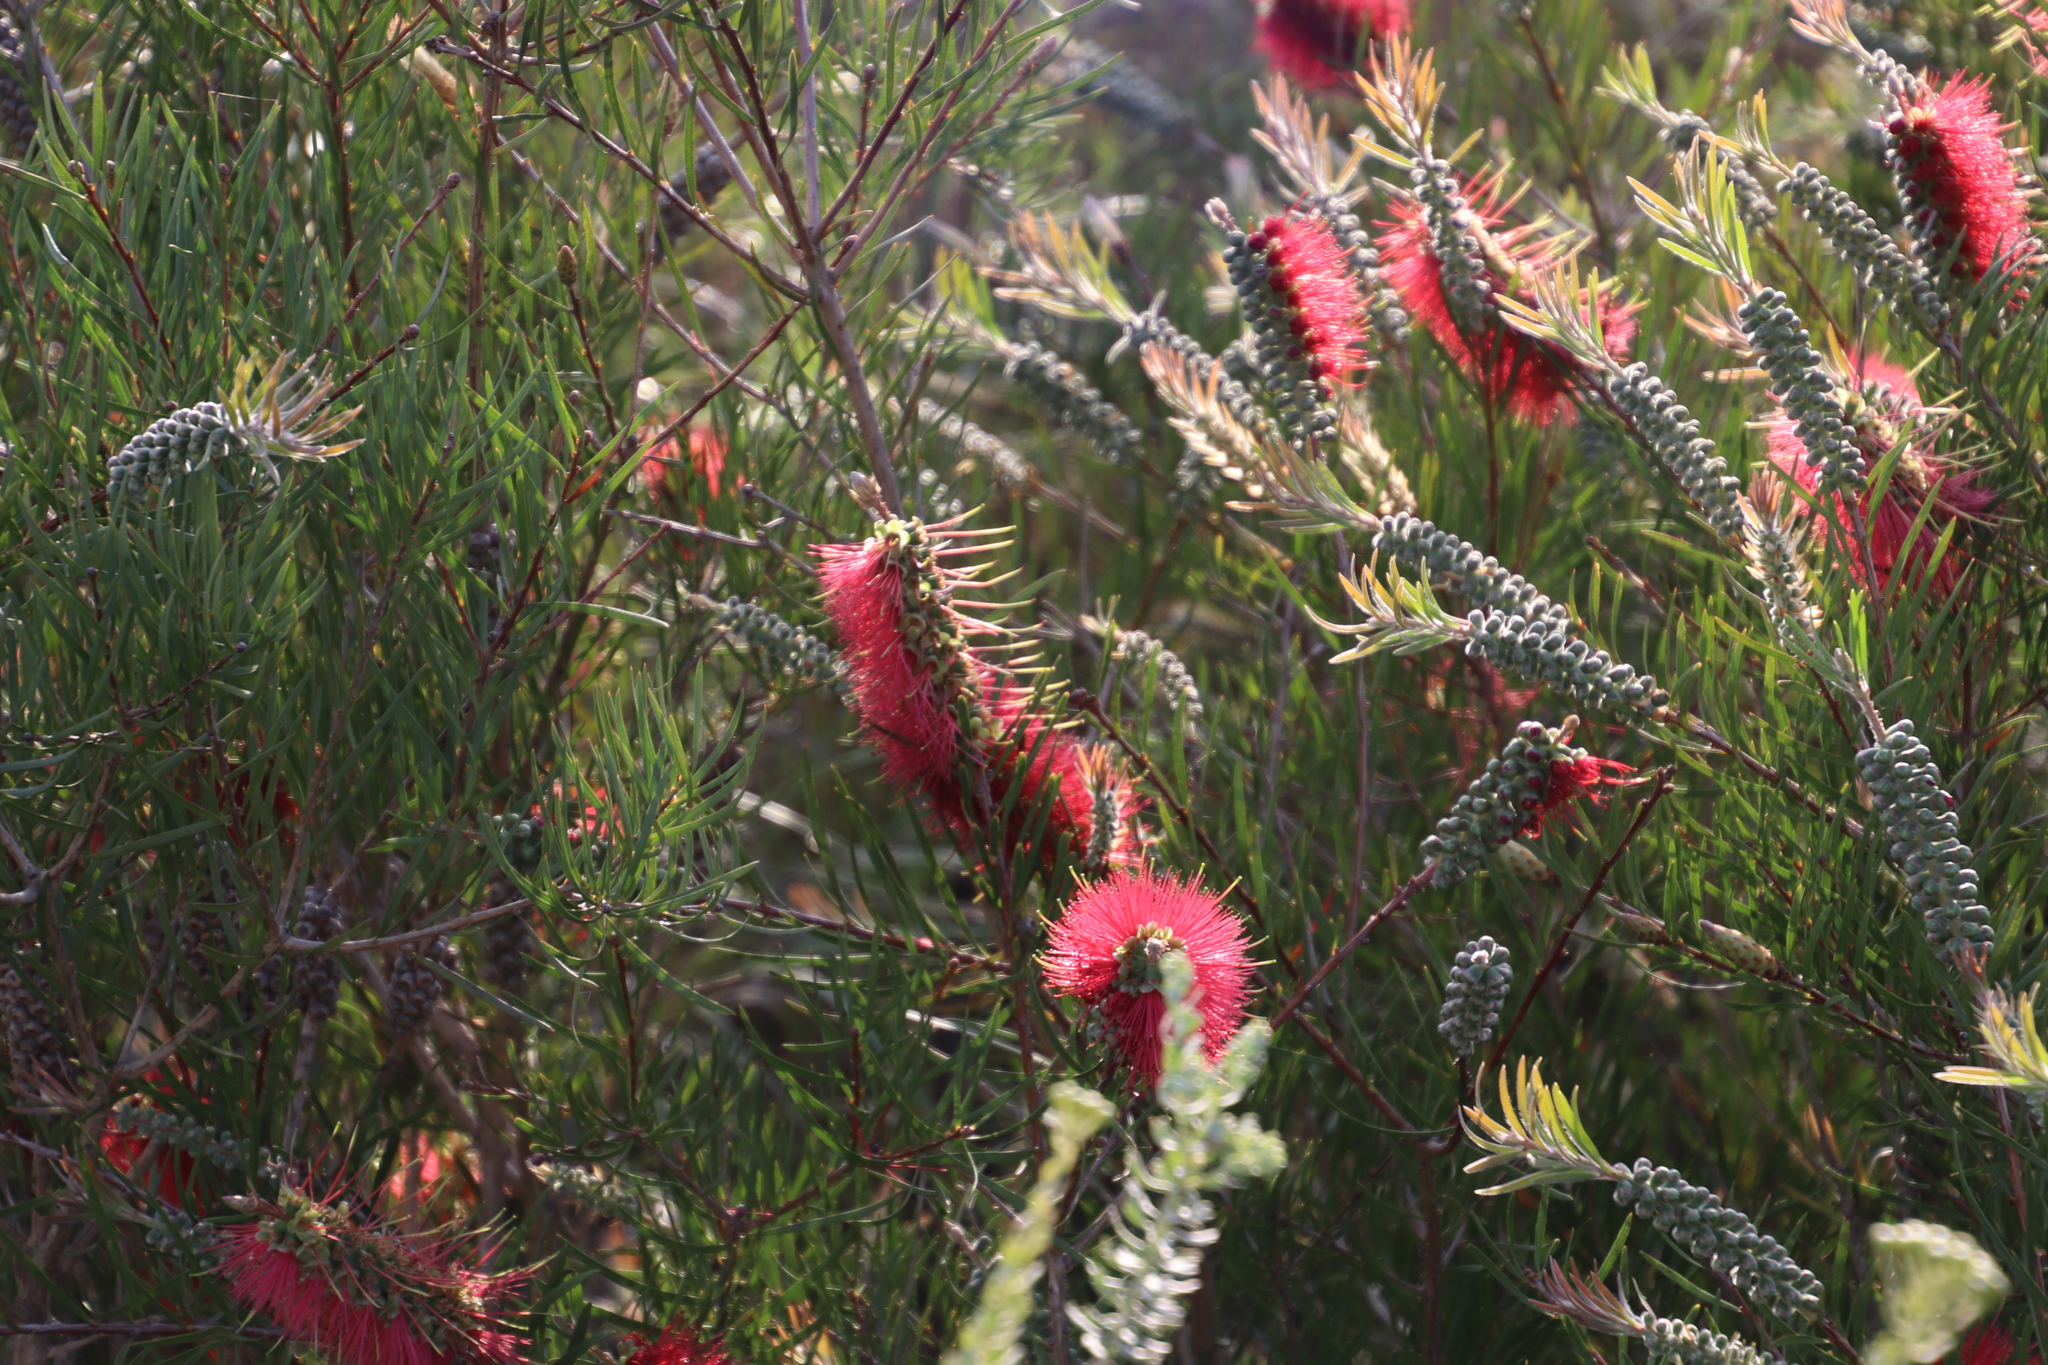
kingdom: Plantae
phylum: Tracheophyta
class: Magnoliopsida
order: Myrtales
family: Myrtaceae
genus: Callistemon
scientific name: Callistemon linearis
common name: Narrow-leaf bottlebrush
